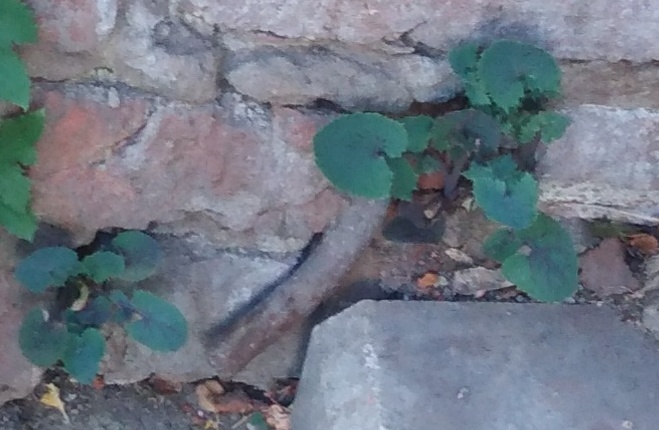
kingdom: Plantae
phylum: Tracheophyta
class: Magnoliopsida
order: Asterales
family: Asteraceae
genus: Sonchus
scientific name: Sonchus oleraceus
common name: Common sowthistle
